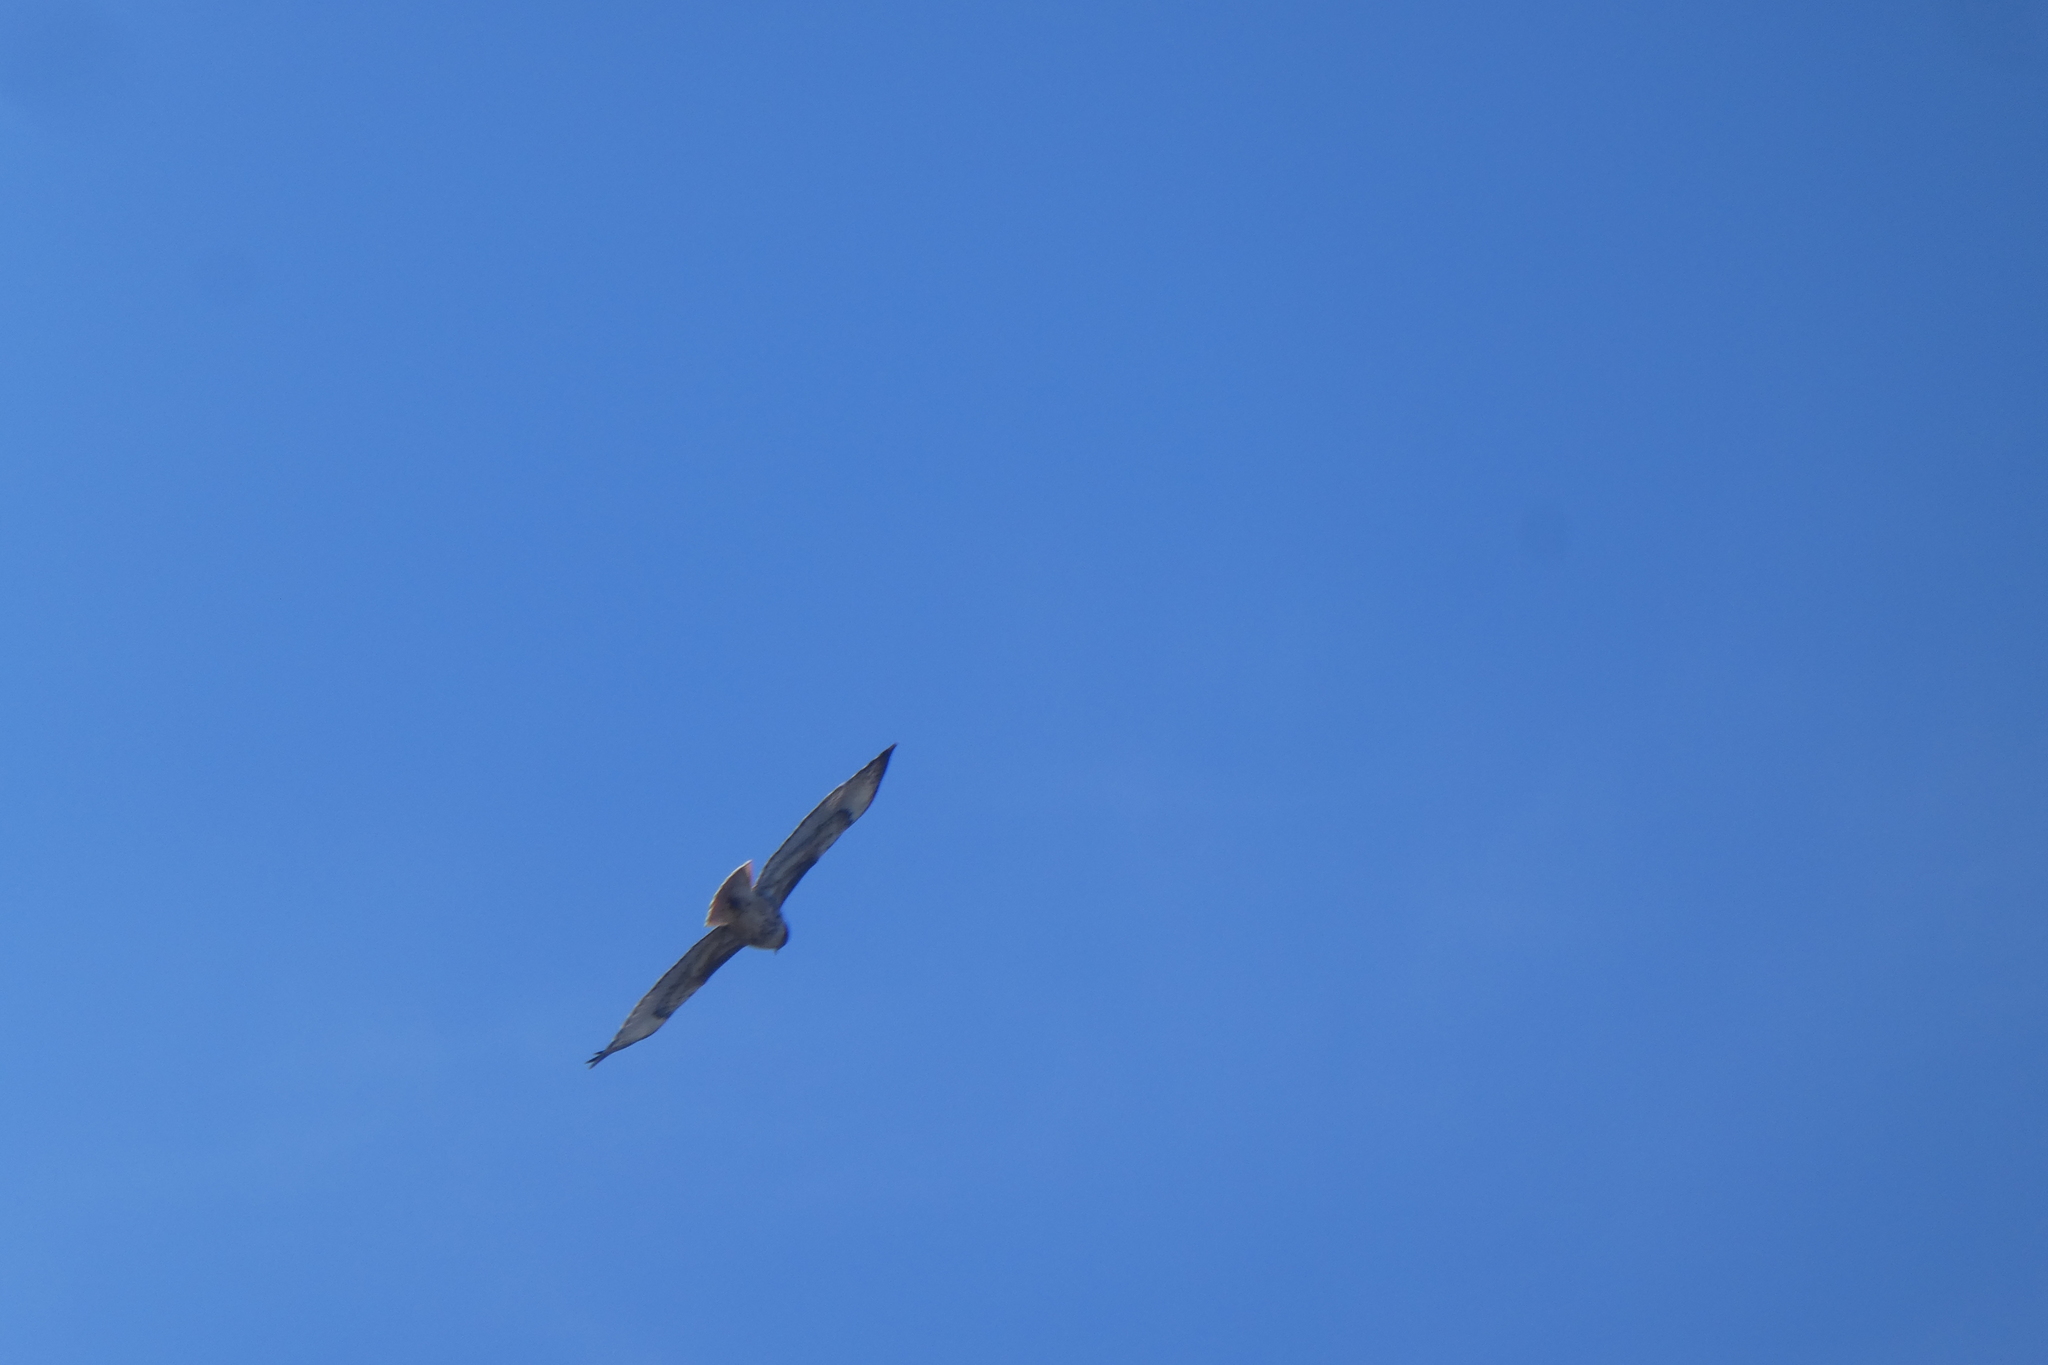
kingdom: Animalia
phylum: Chordata
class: Aves
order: Accipitriformes
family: Accipitridae
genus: Buteo
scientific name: Buteo jamaicensis
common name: Red-tailed hawk
